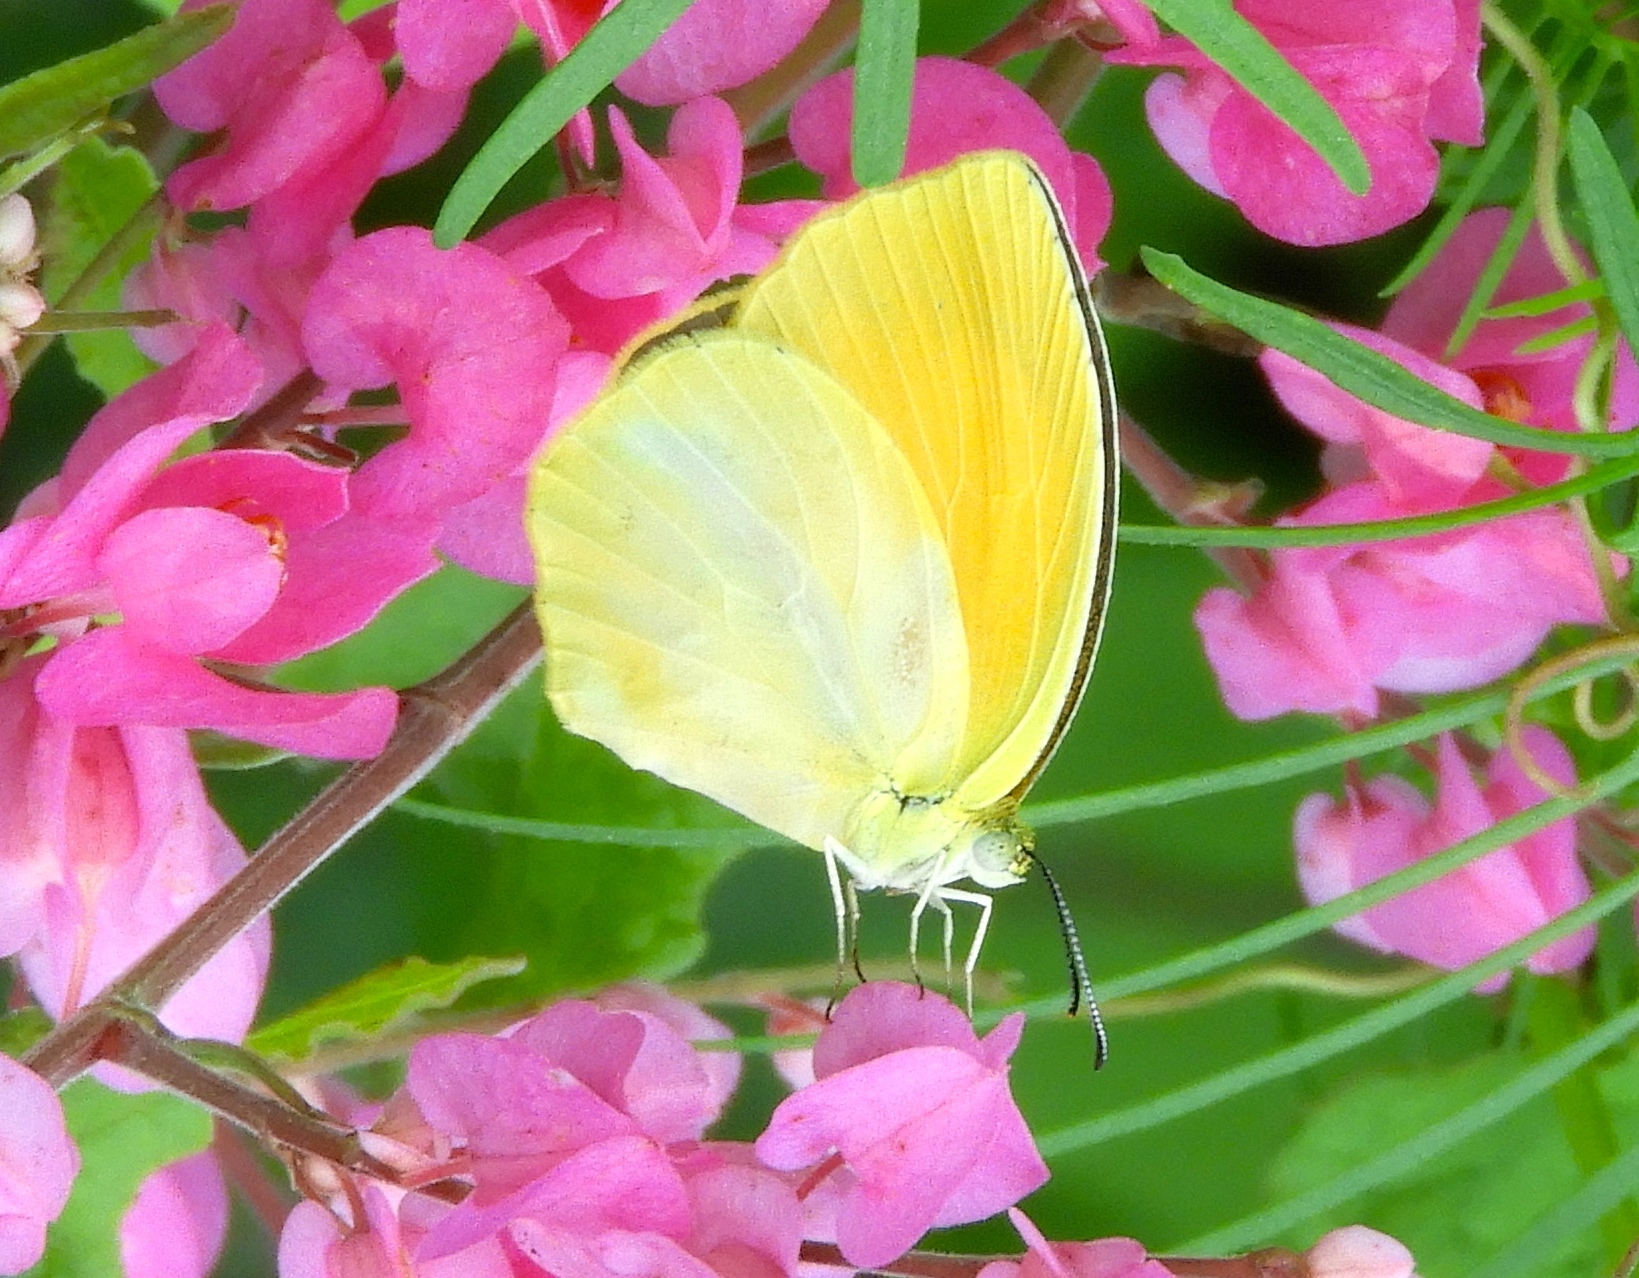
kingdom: Animalia
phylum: Arthropoda
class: Insecta
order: Lepidoptera
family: Pieridae
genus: Pyrisitia
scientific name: Pyrisitia proterpia
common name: Tailed orange
